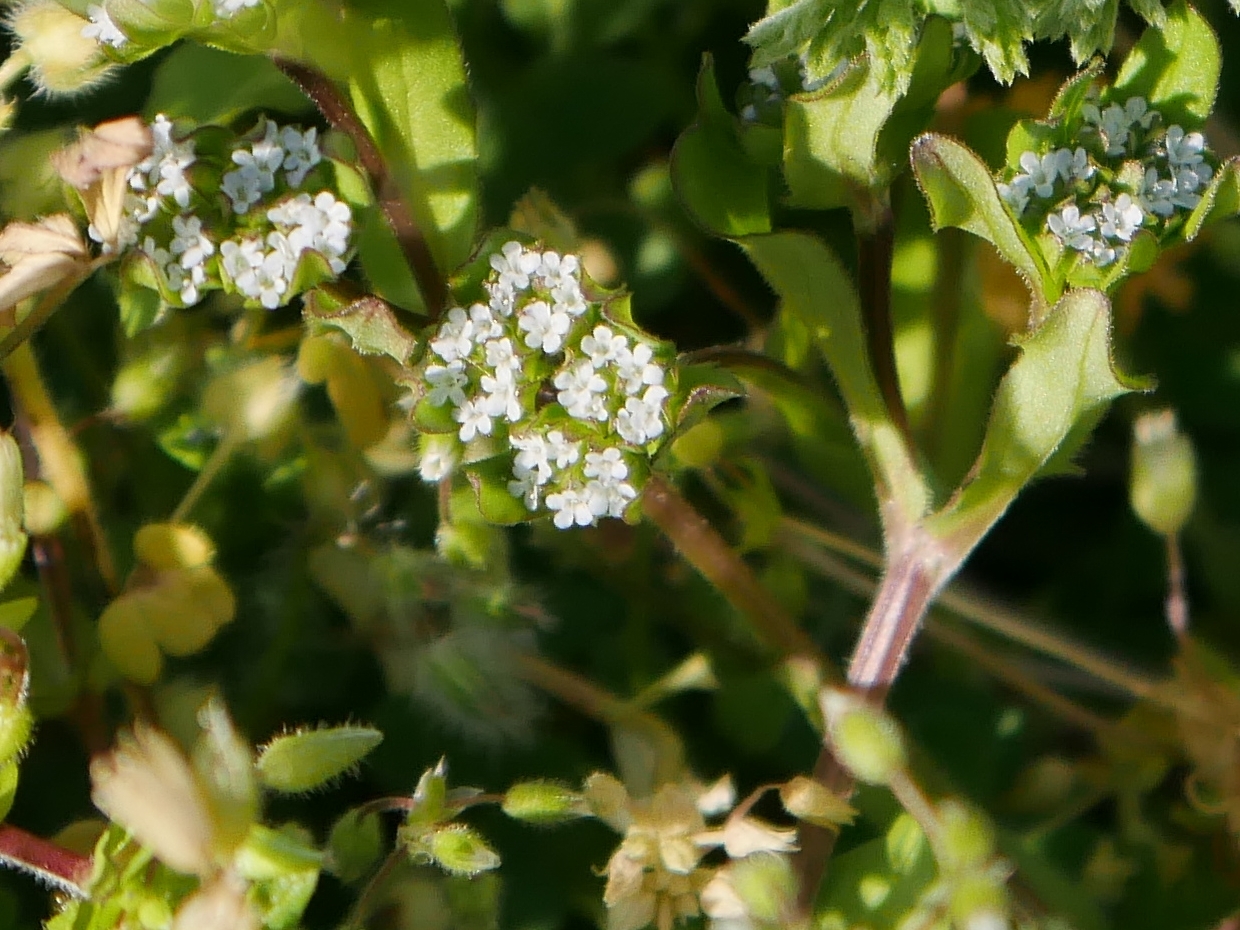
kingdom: Plantae
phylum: Tracheophyta
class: Magnoliopsida
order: Dipsacales
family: Caprifoliaceae
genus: Valerianella
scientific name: Valerianella
